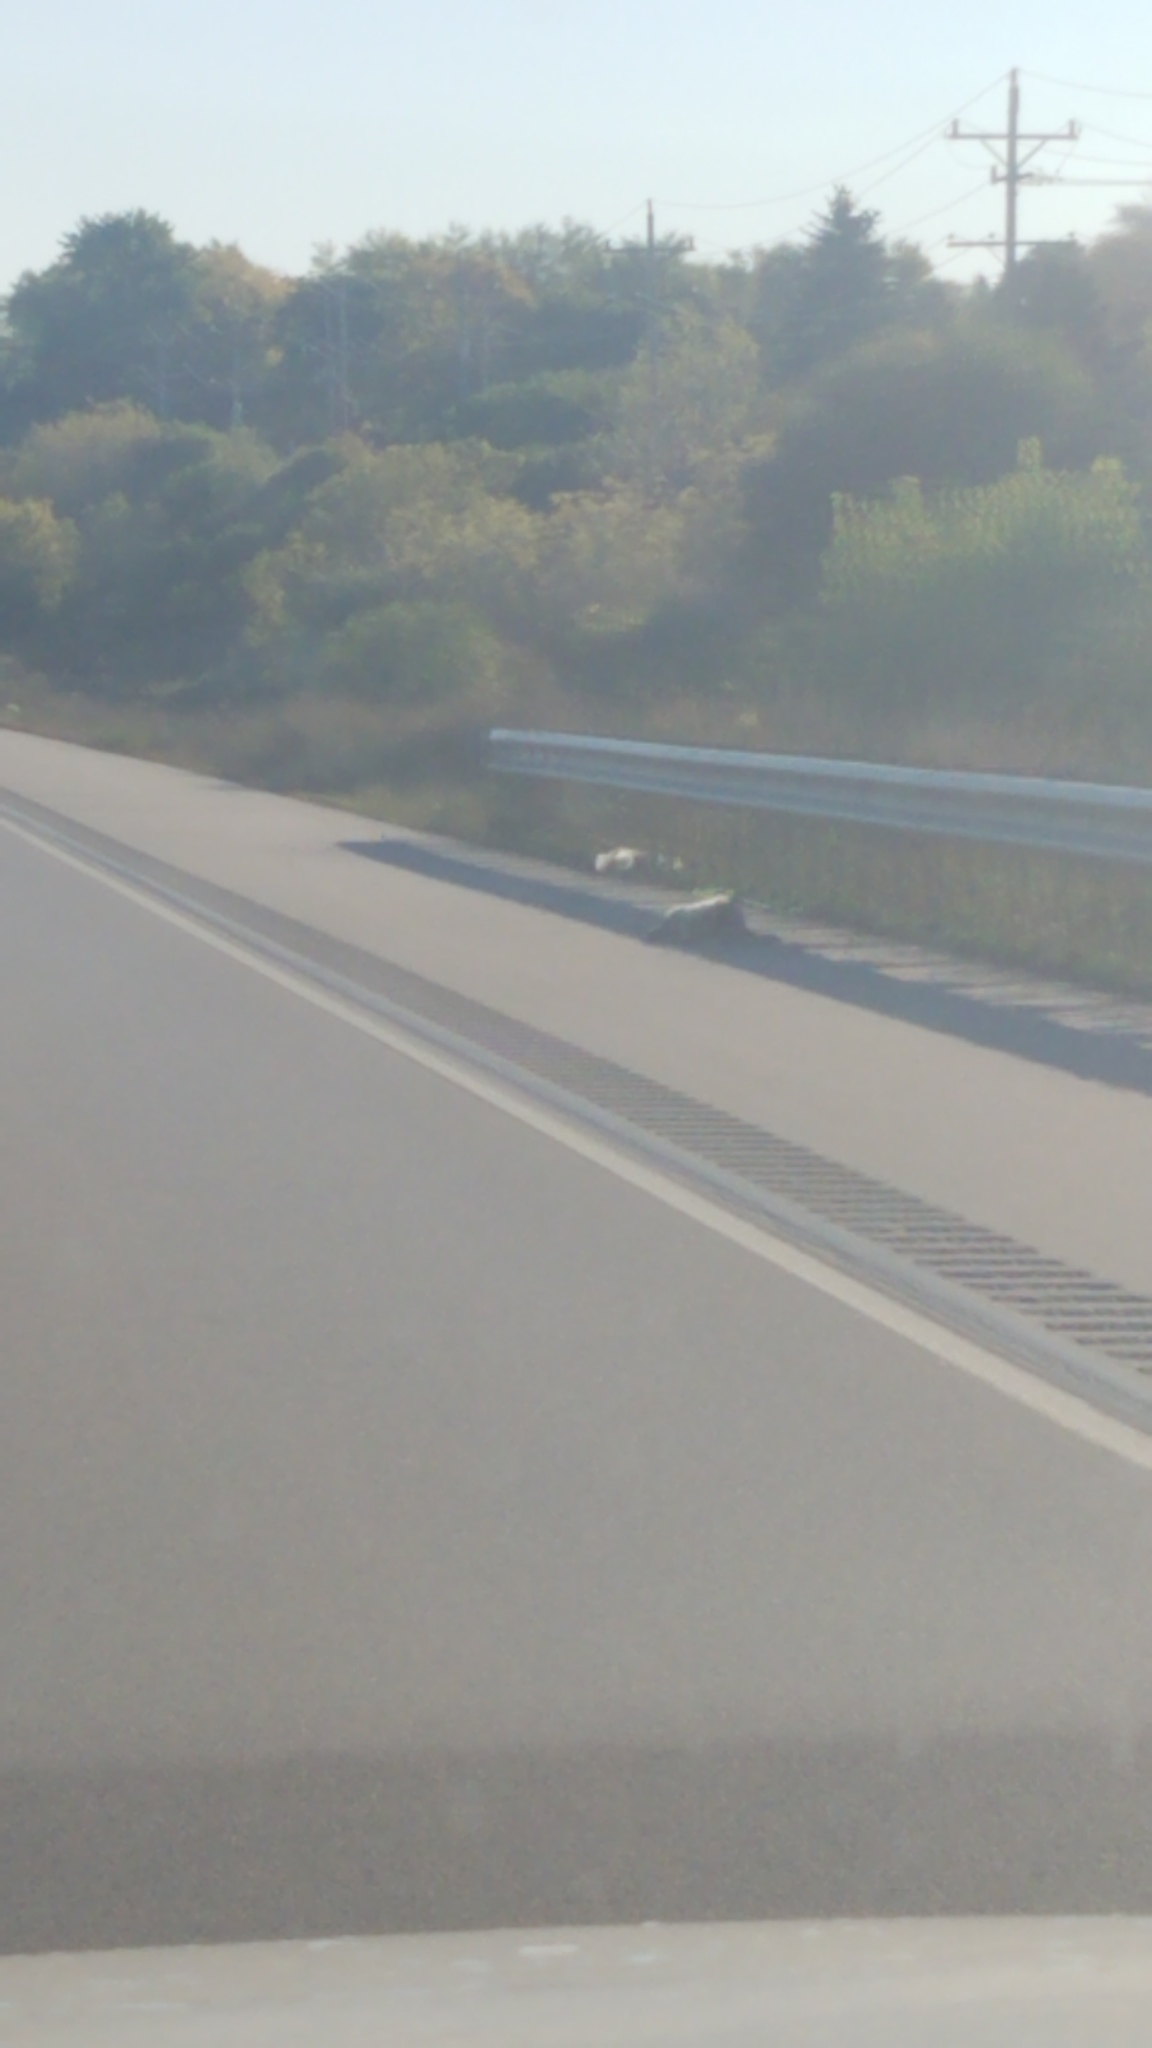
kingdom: Animalia
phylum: Chordata
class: Mammalia
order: Artiodactyla
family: Cervidae
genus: Odocoileus
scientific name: Odocoileus virginianus
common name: White-tailed deer
